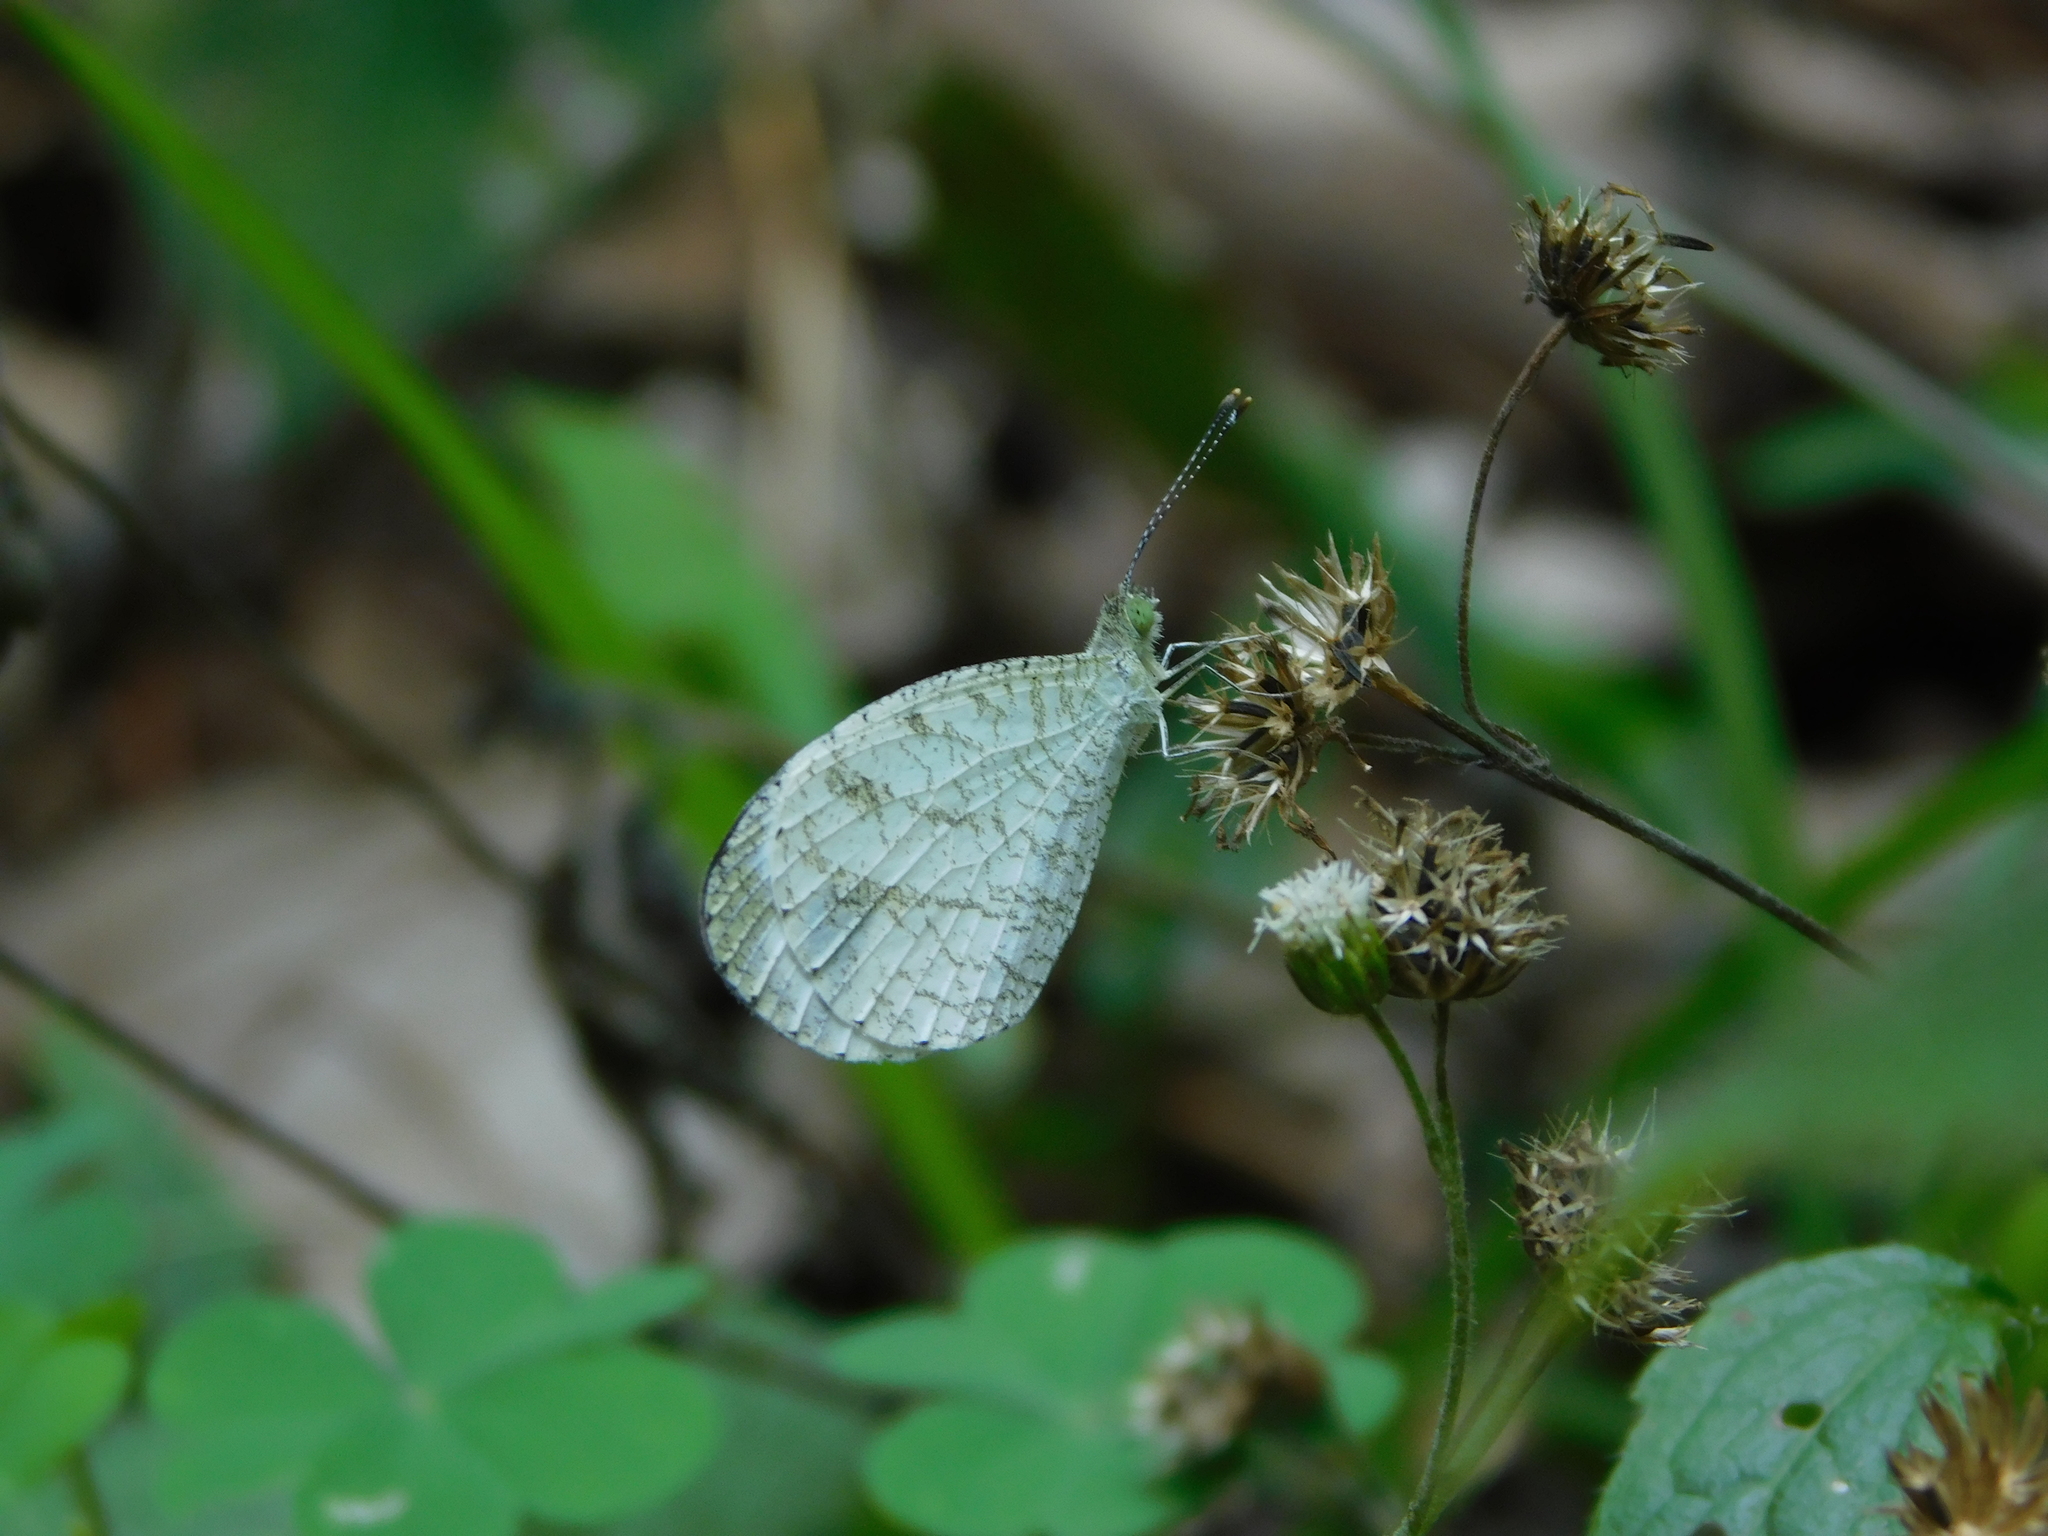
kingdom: Animalia
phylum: Arthropoda
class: Insecta
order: Lepidoptera
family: Pieridae
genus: Leptosia
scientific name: Leptosia nina
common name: Psyche
